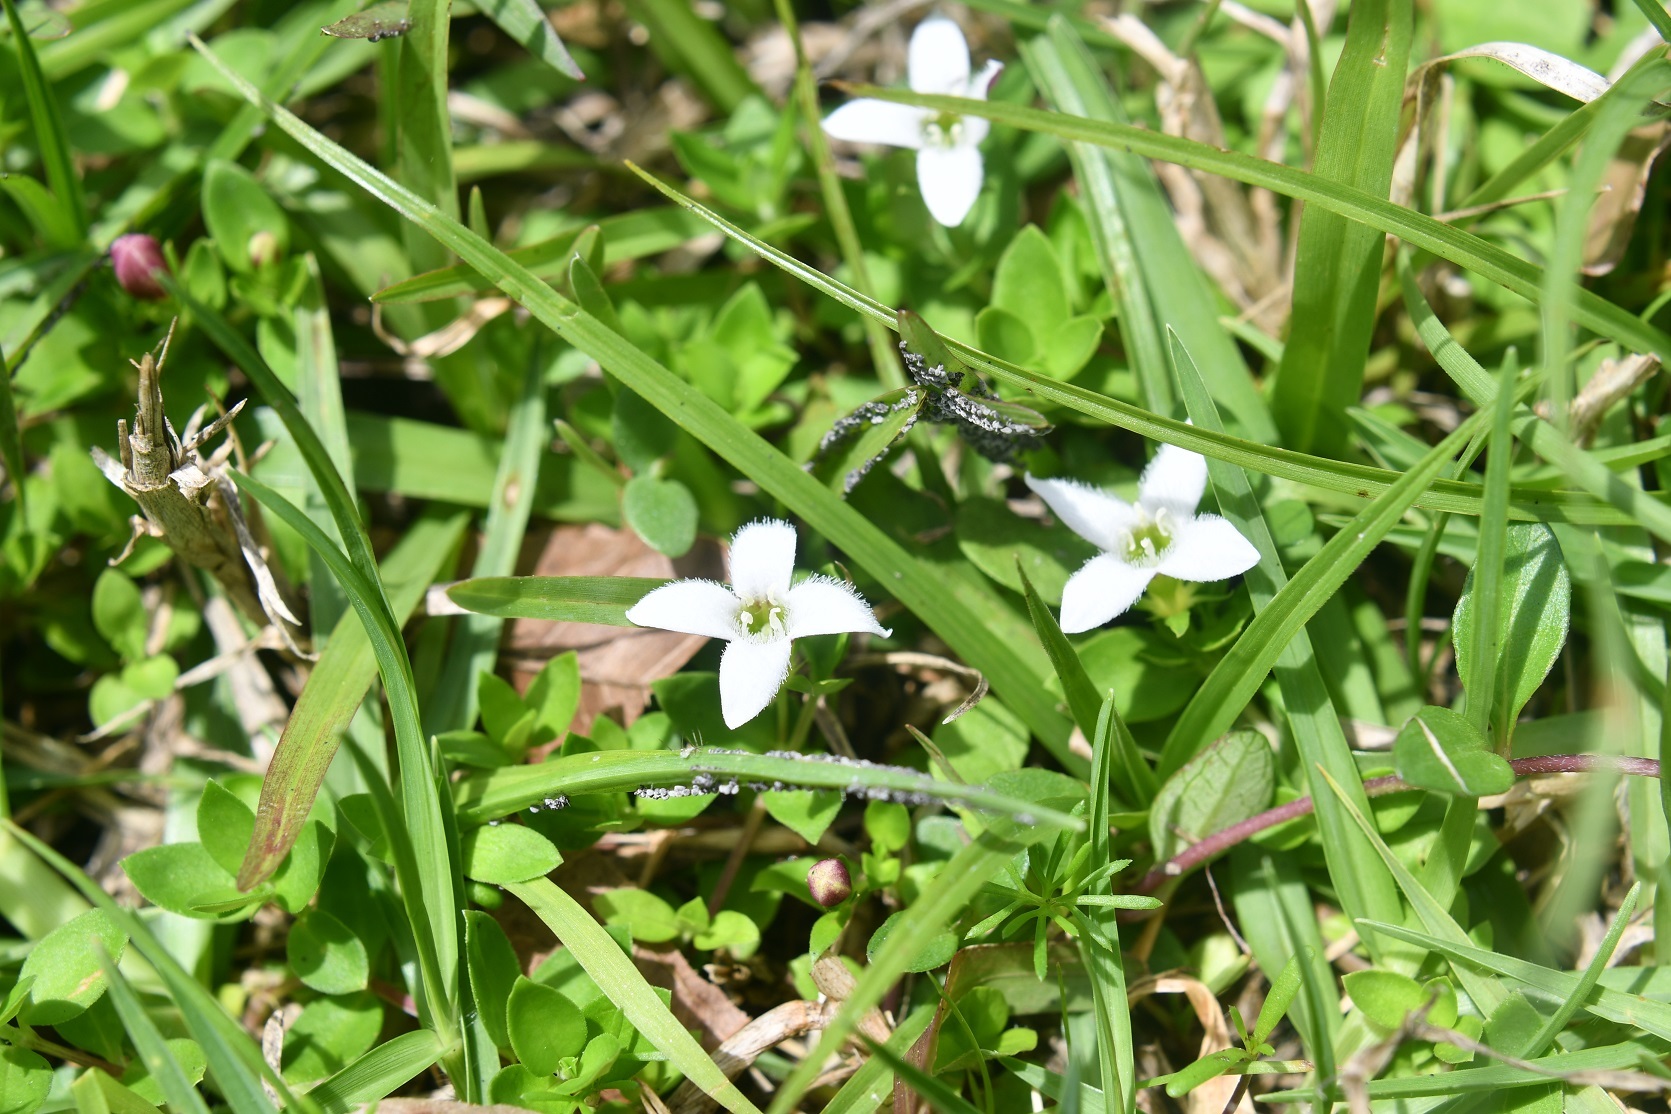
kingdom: Plantae
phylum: Tracheophyta
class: Magnoliopsida
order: Gentianales
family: Rubiaceae
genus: Arcytophyllum
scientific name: Arcytophyllum serpyllaceum
